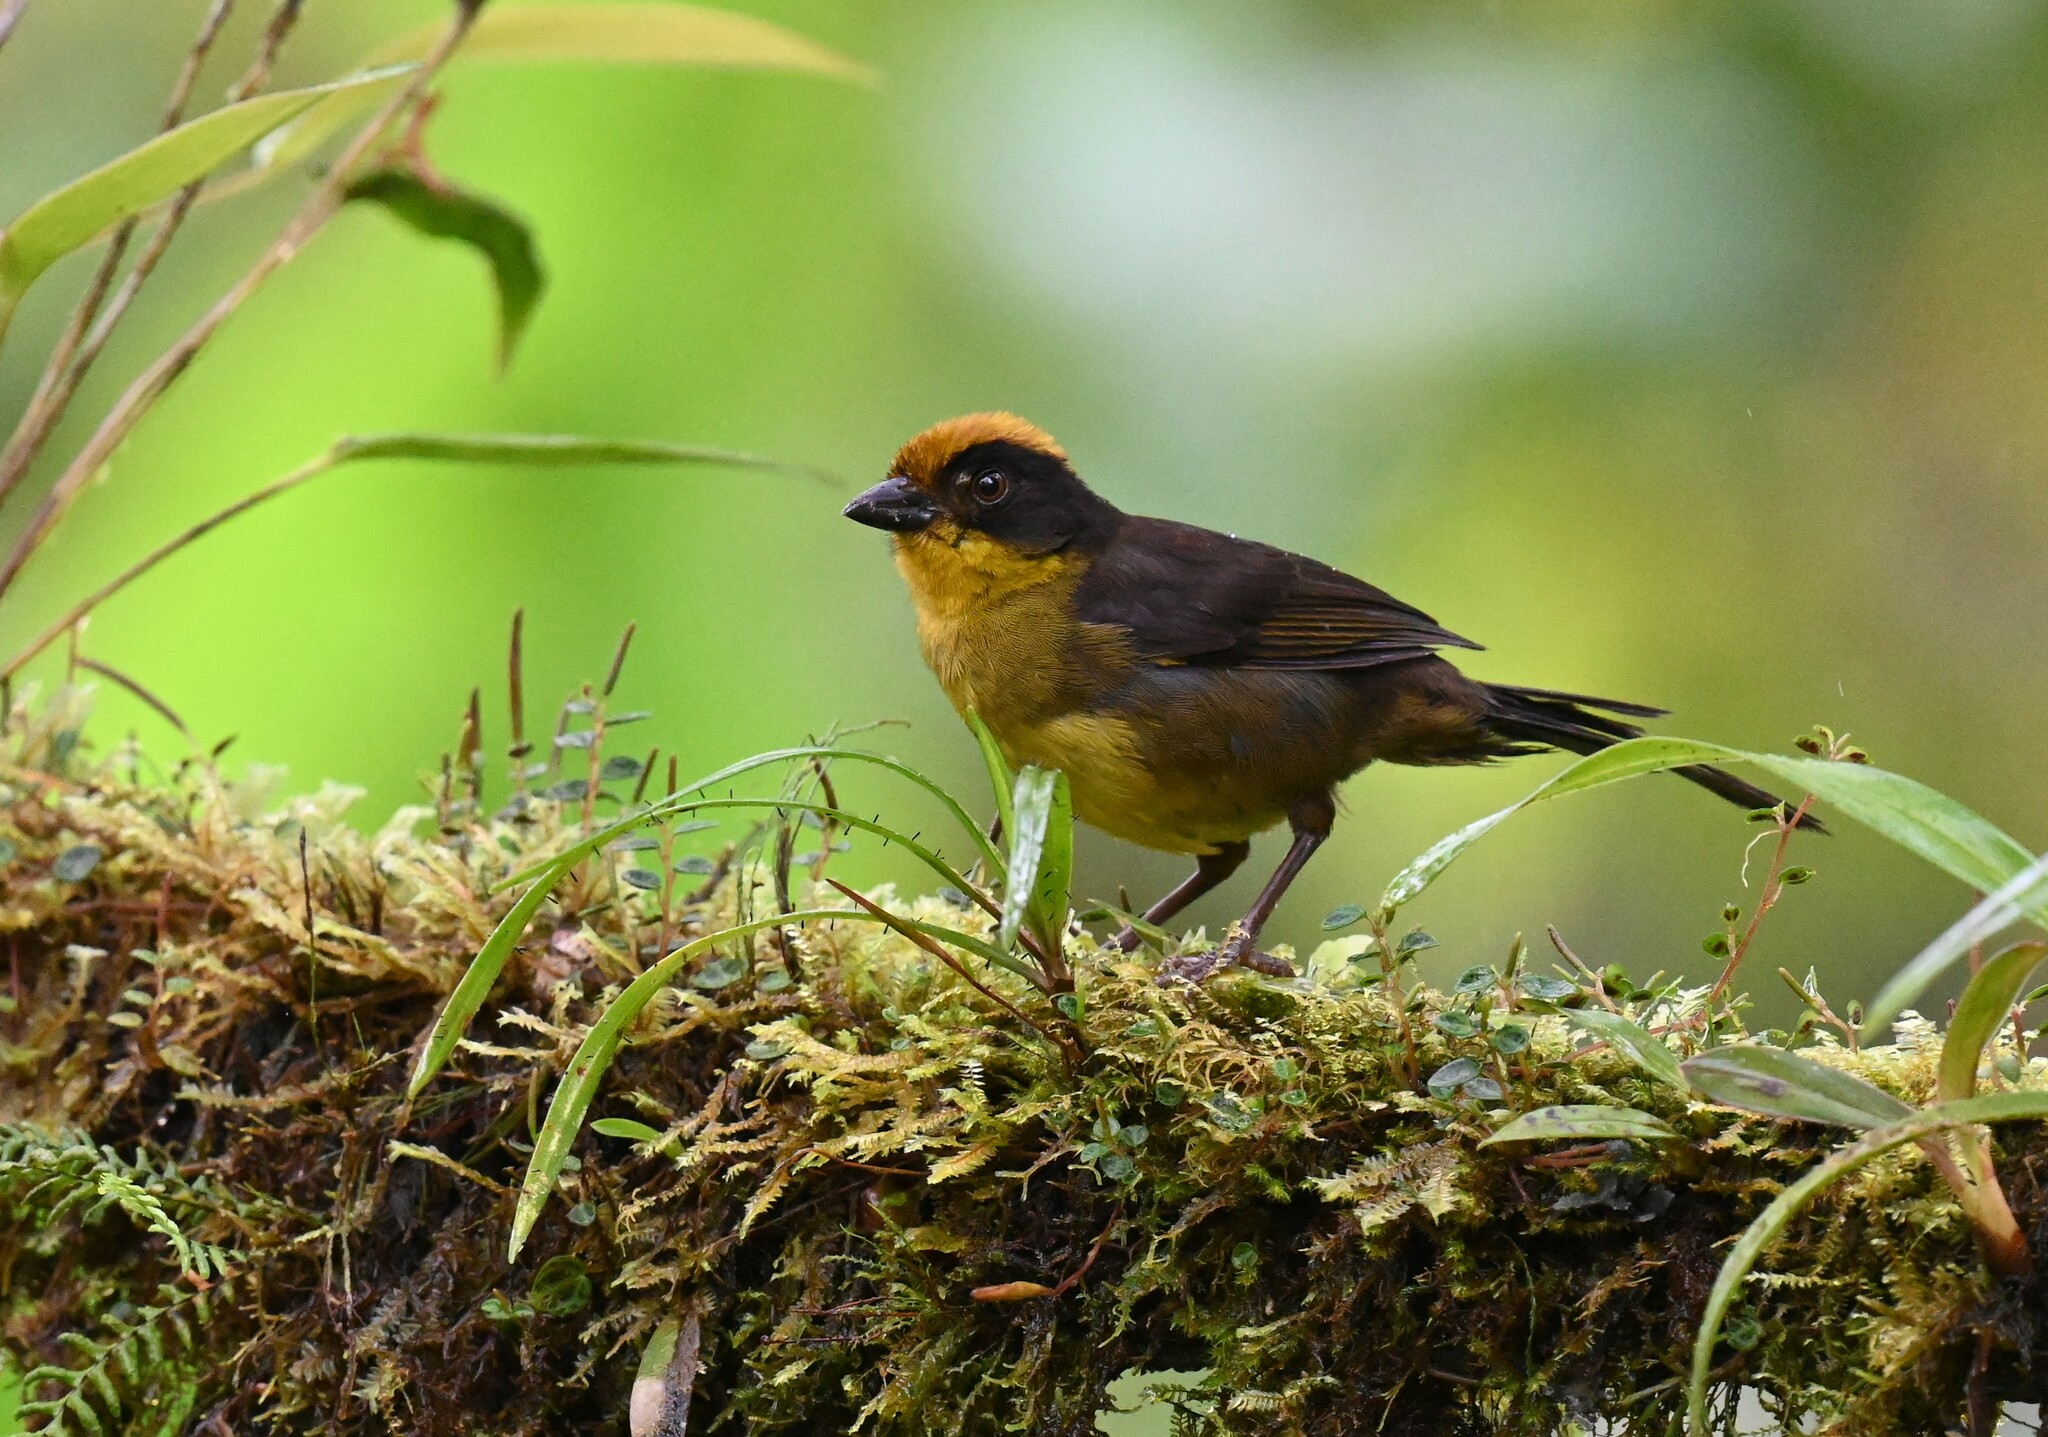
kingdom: Animalia
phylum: Chordata
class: Aves
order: Passeriformes
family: Passerellidae
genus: Atlapetes
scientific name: Atlapetes tricolor
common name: Tricolored brushfinch
